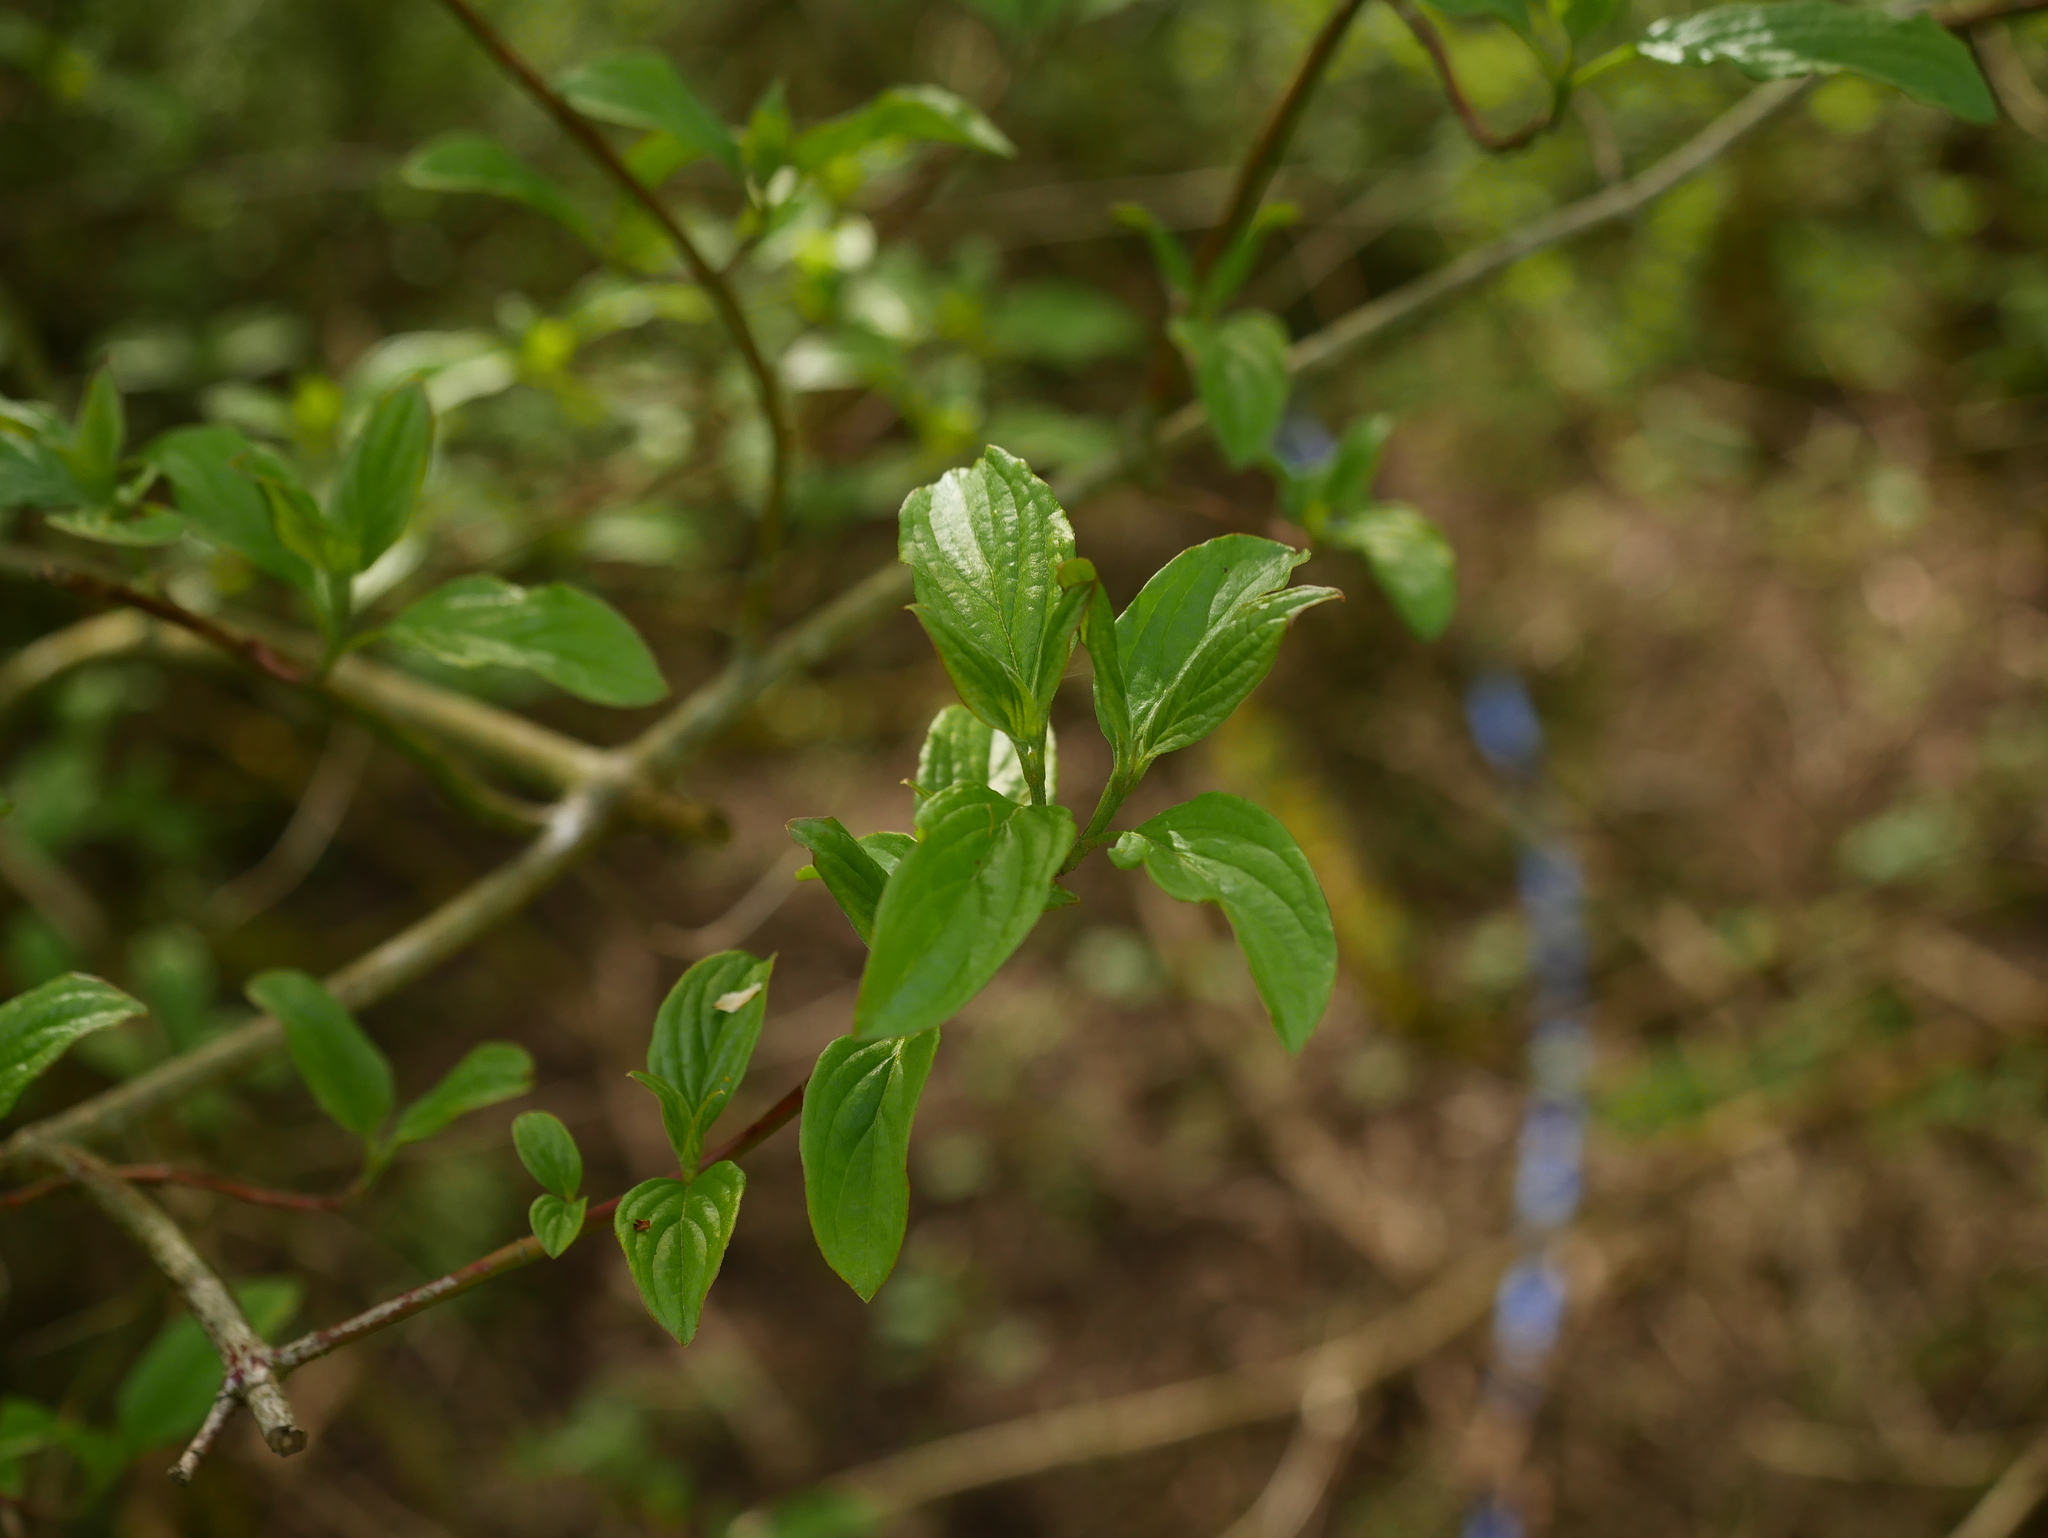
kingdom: Plantae
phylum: Tracheophyta
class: Magnoliopsida
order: Cornales
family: Cornaceae
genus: Cornus
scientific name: Cornus sanguinea
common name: Dogwood
